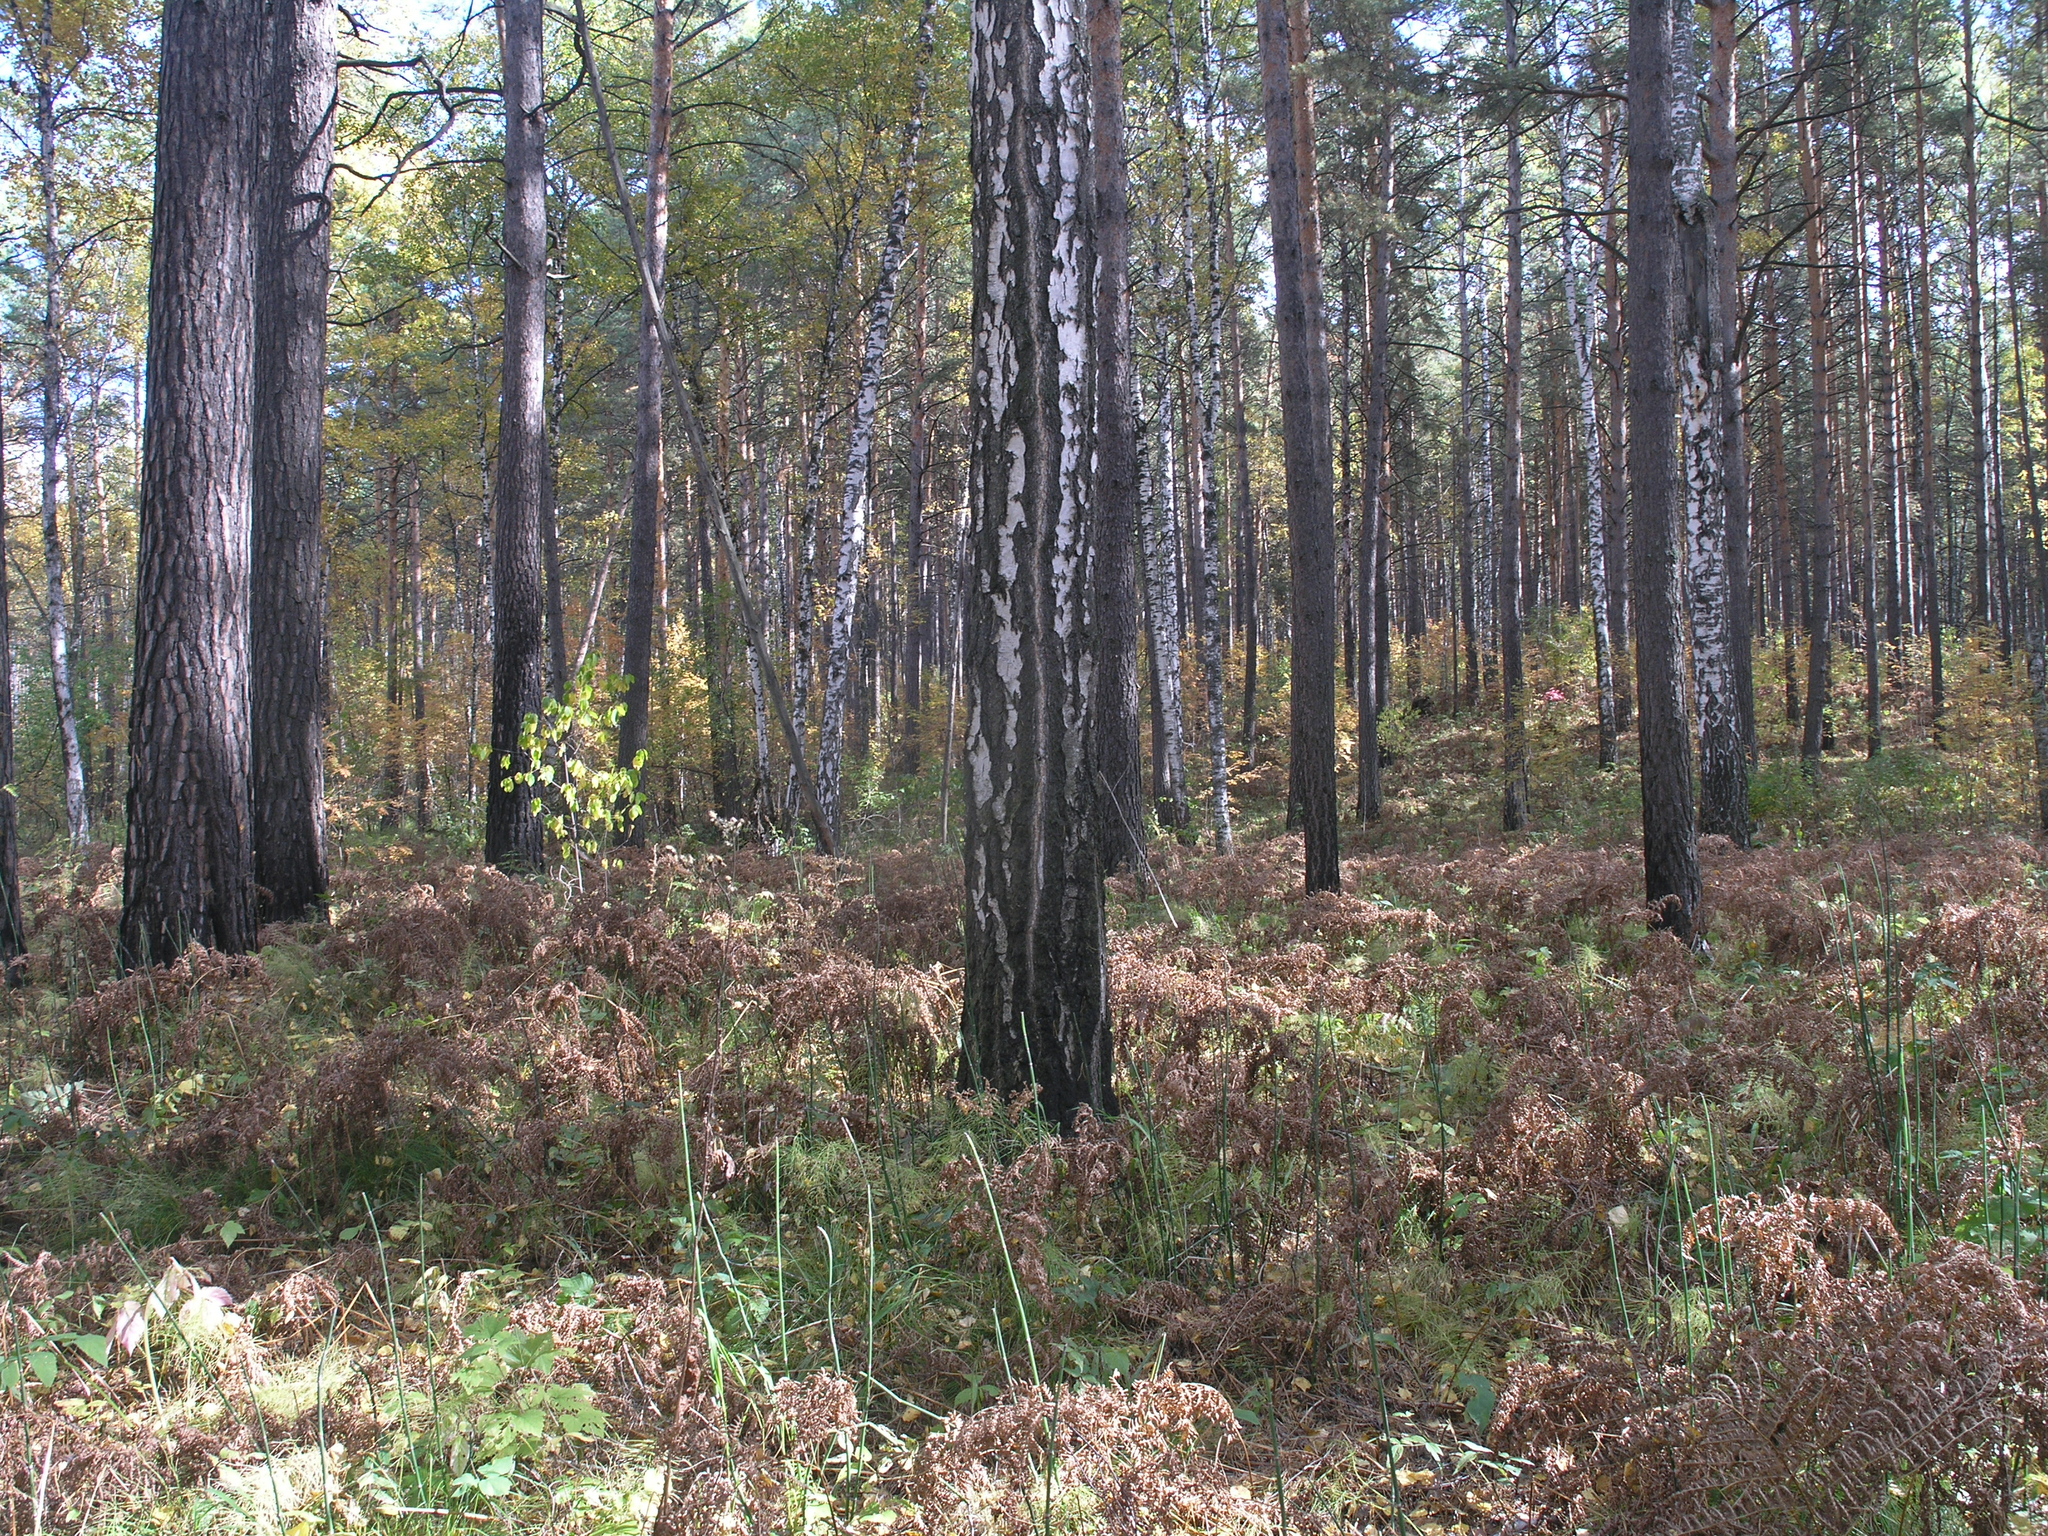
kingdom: Plantae
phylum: Tracheophyta
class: Pinopsida
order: Pinales
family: Pinaceae
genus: Pinus
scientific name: Pinus sylvestris
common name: Scots pine
